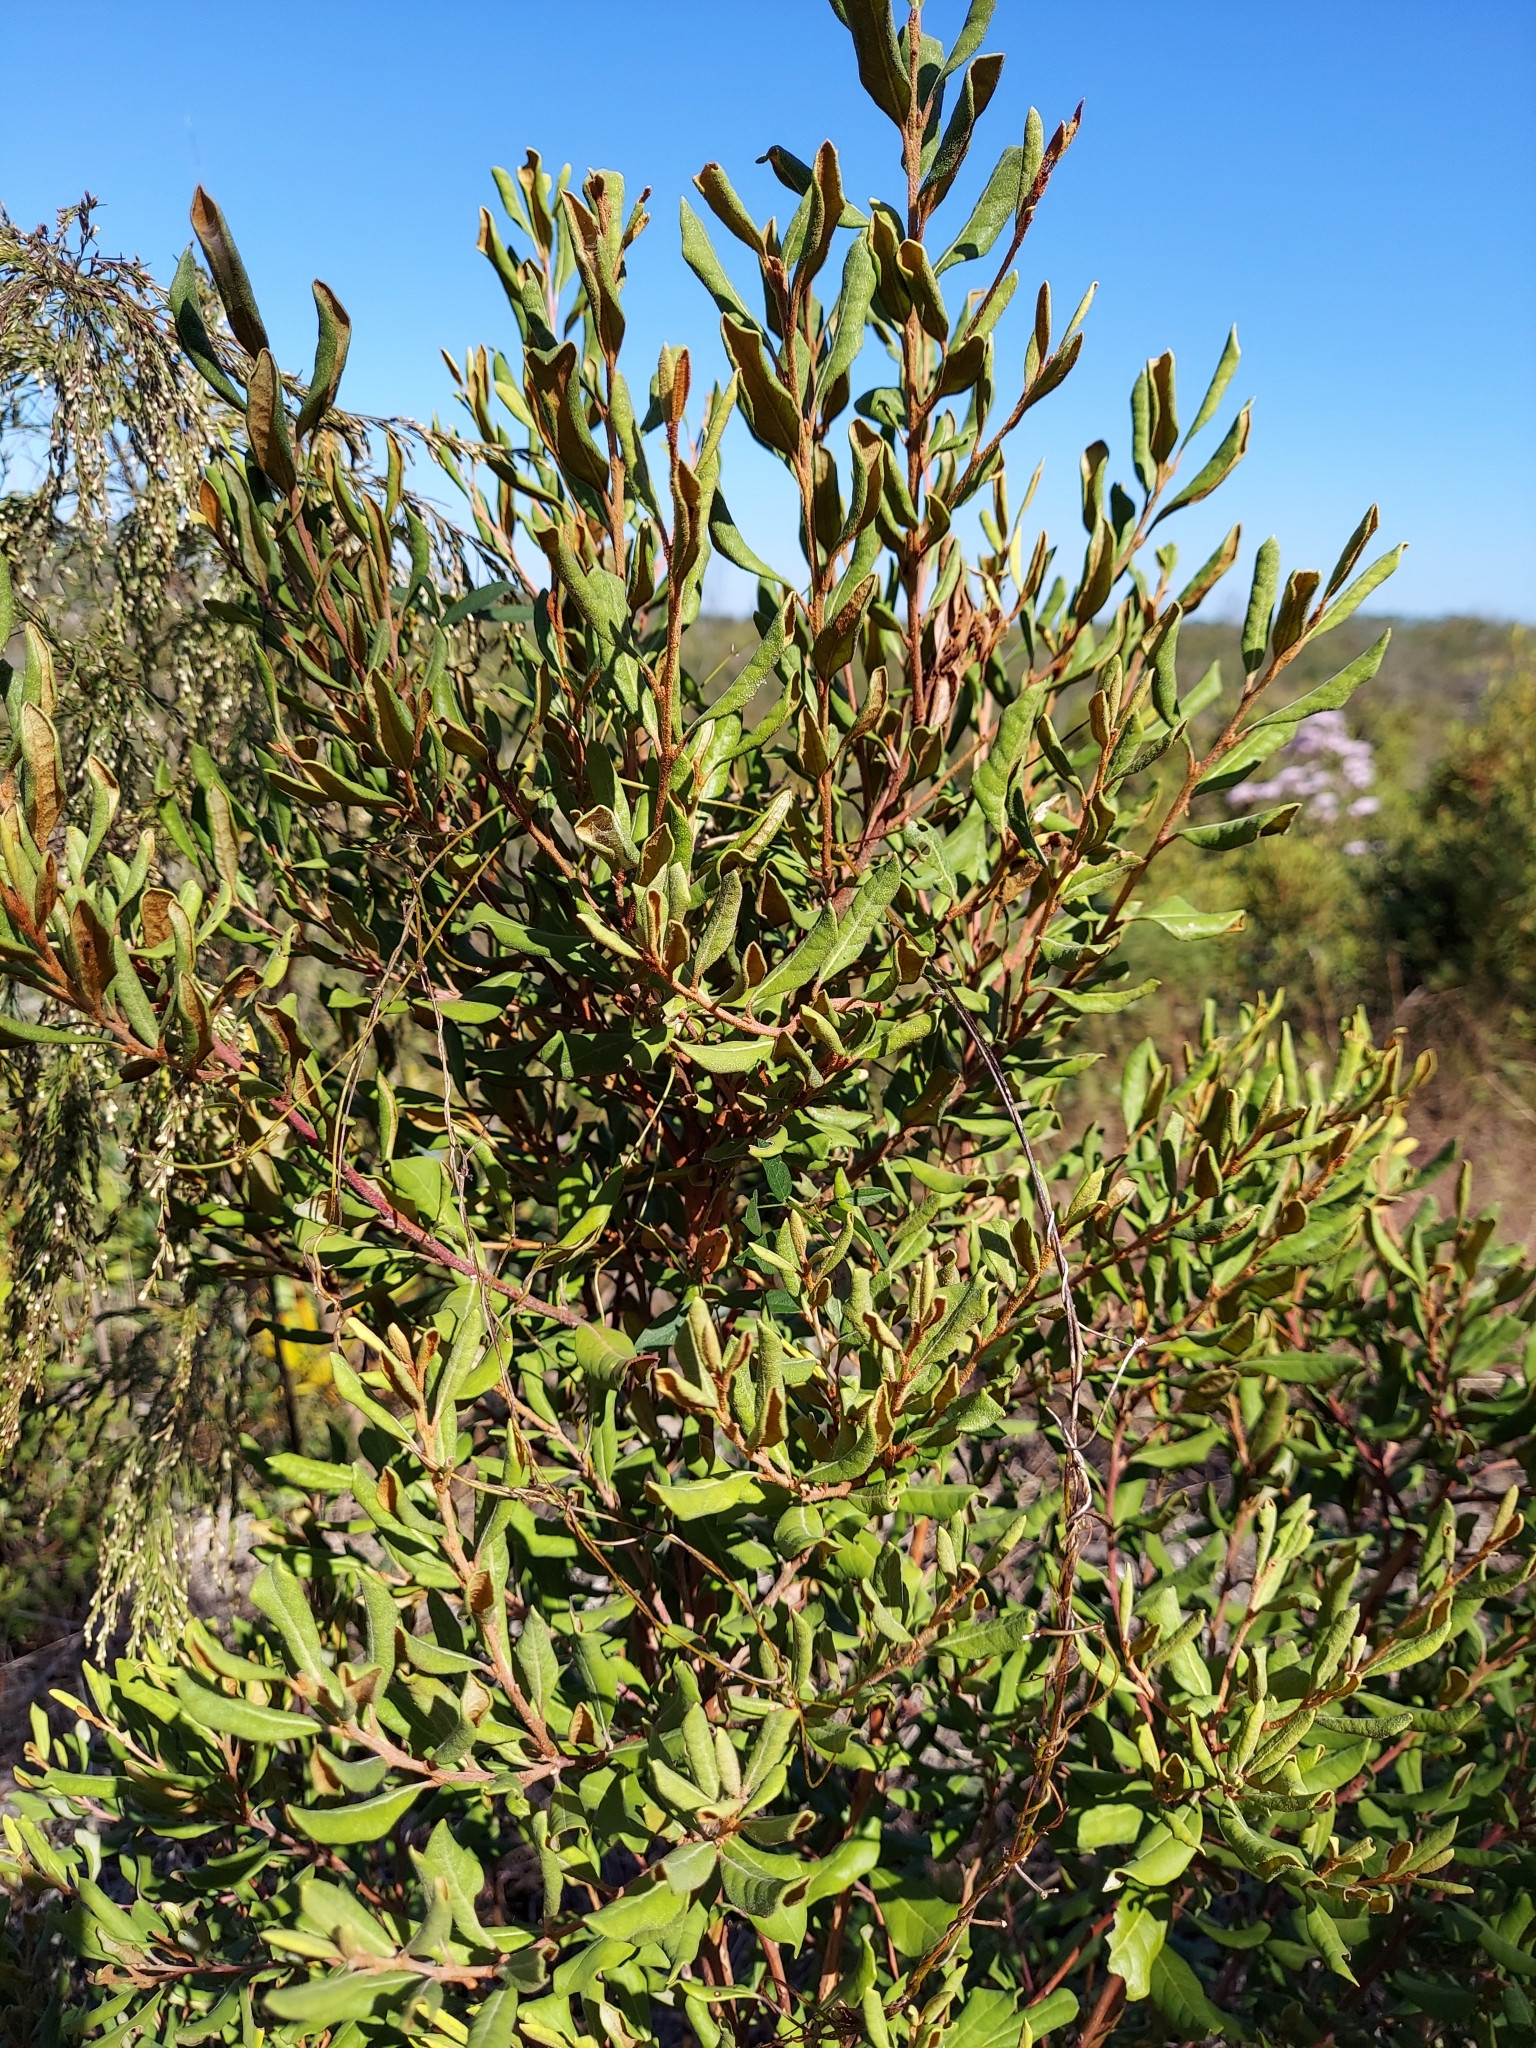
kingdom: Plantae
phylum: Tracheophyta
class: Magnoliopsida
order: Ericales
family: Ericaceae
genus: Lyonia
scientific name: Lyonia ferruginea
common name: Rusty lyonia
